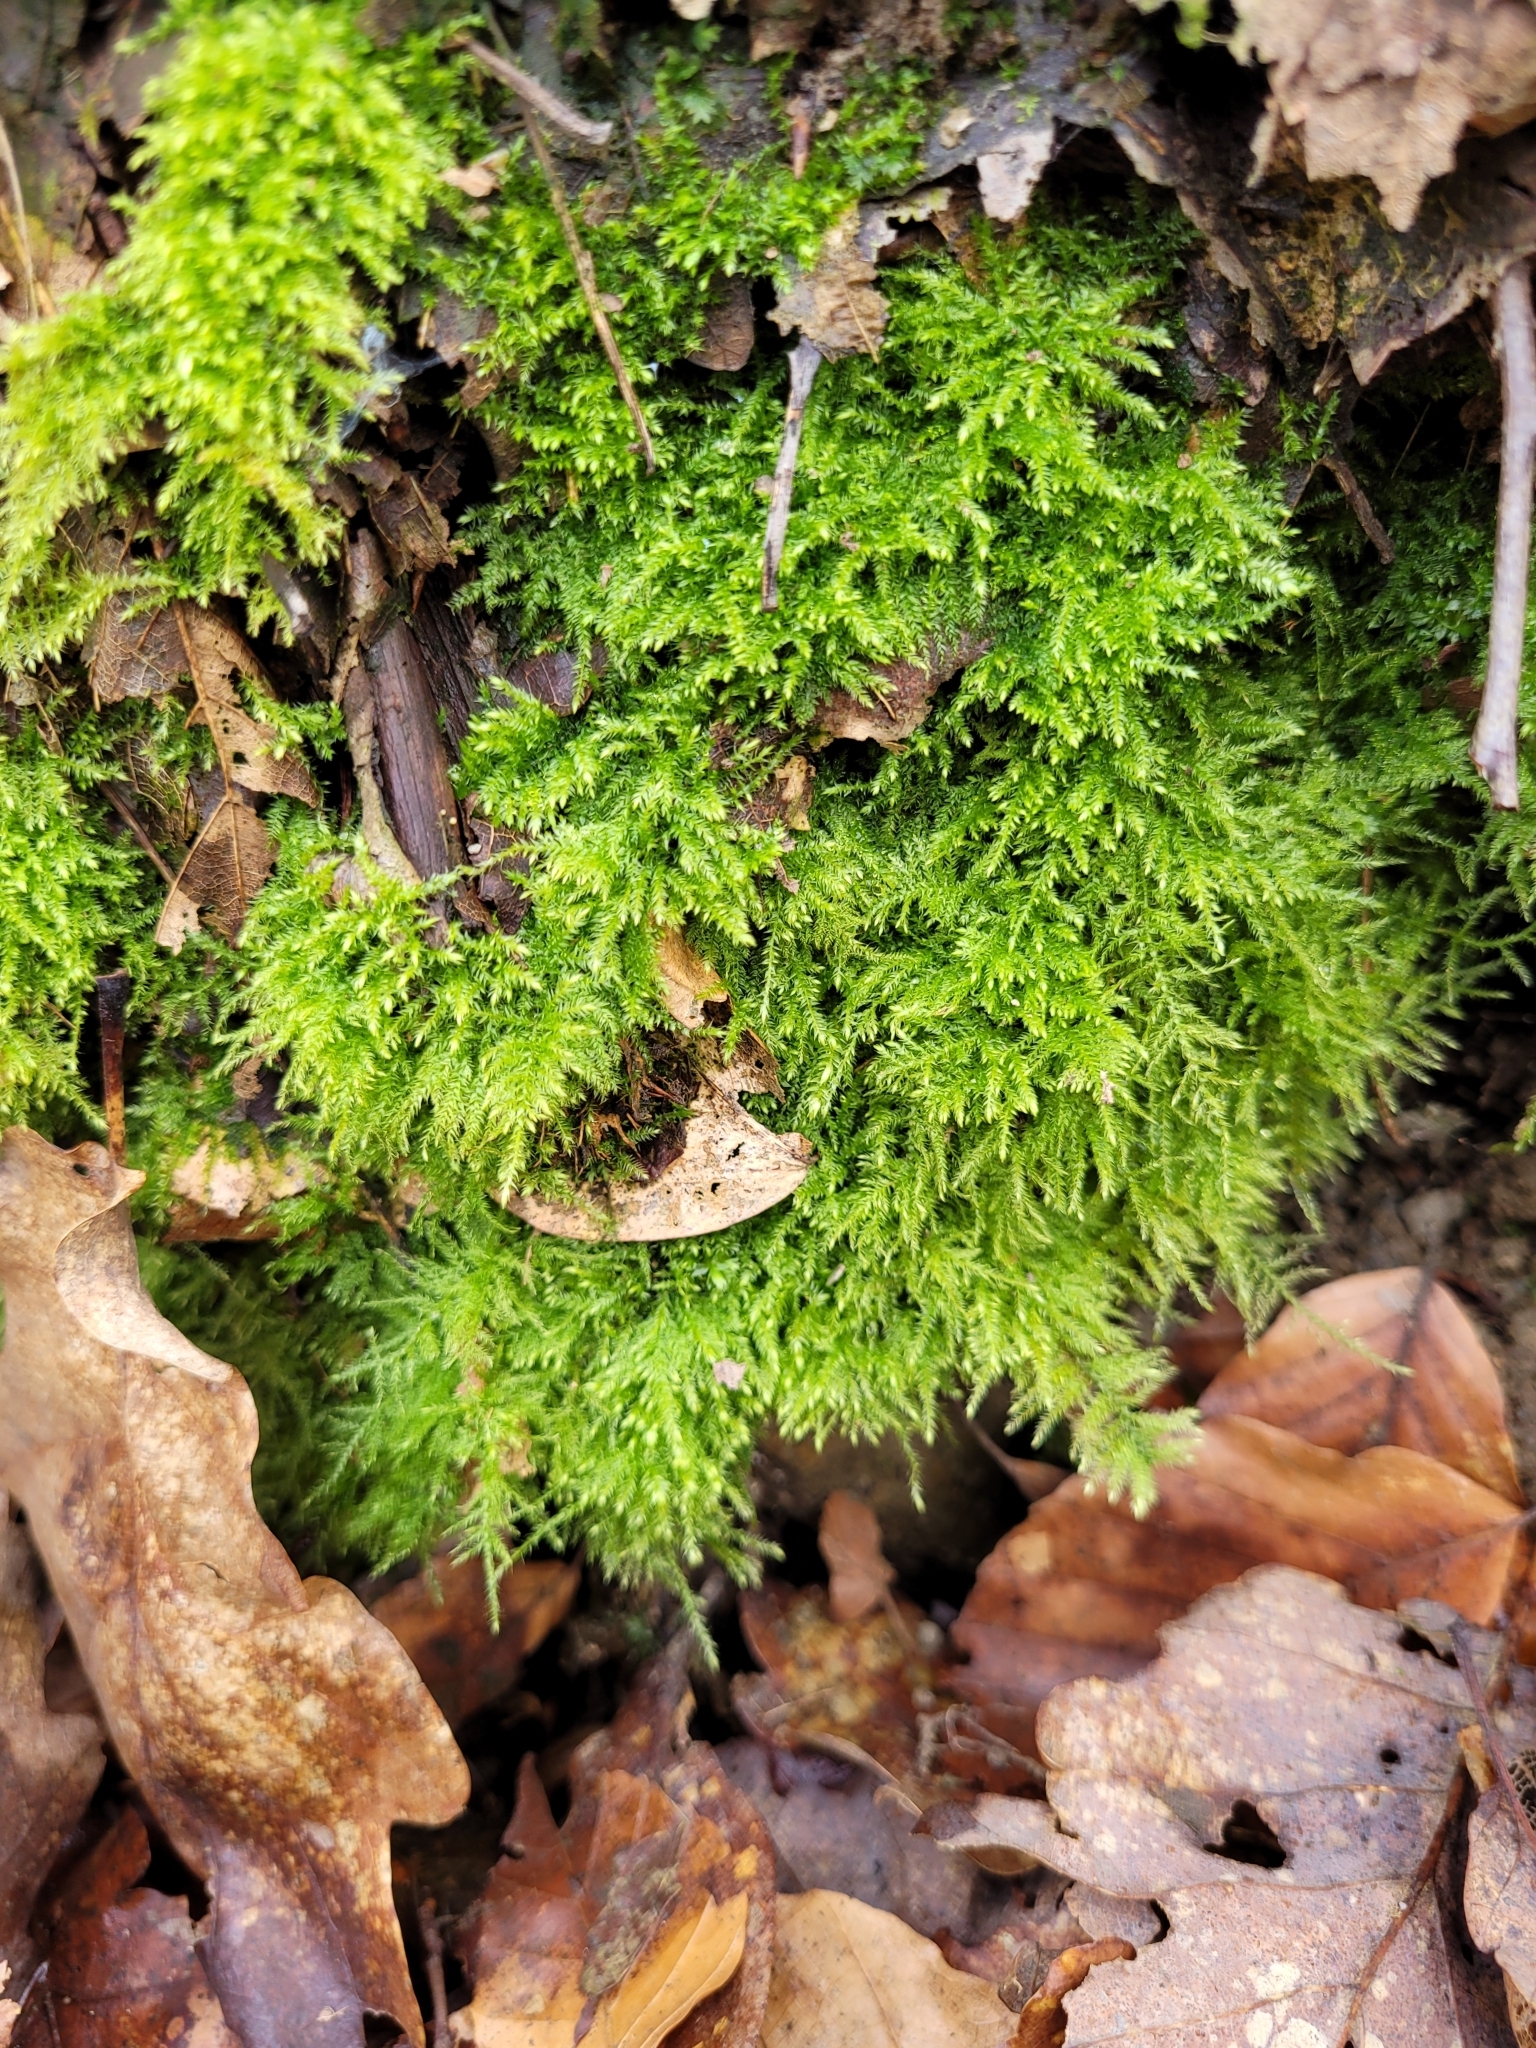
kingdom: Plantae
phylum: Bryophyta
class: Bryopsida
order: Hypnales
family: Brachytheciaceae
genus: Kindbergia
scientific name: Kindbergia praelonga
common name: Slender beaked moss
